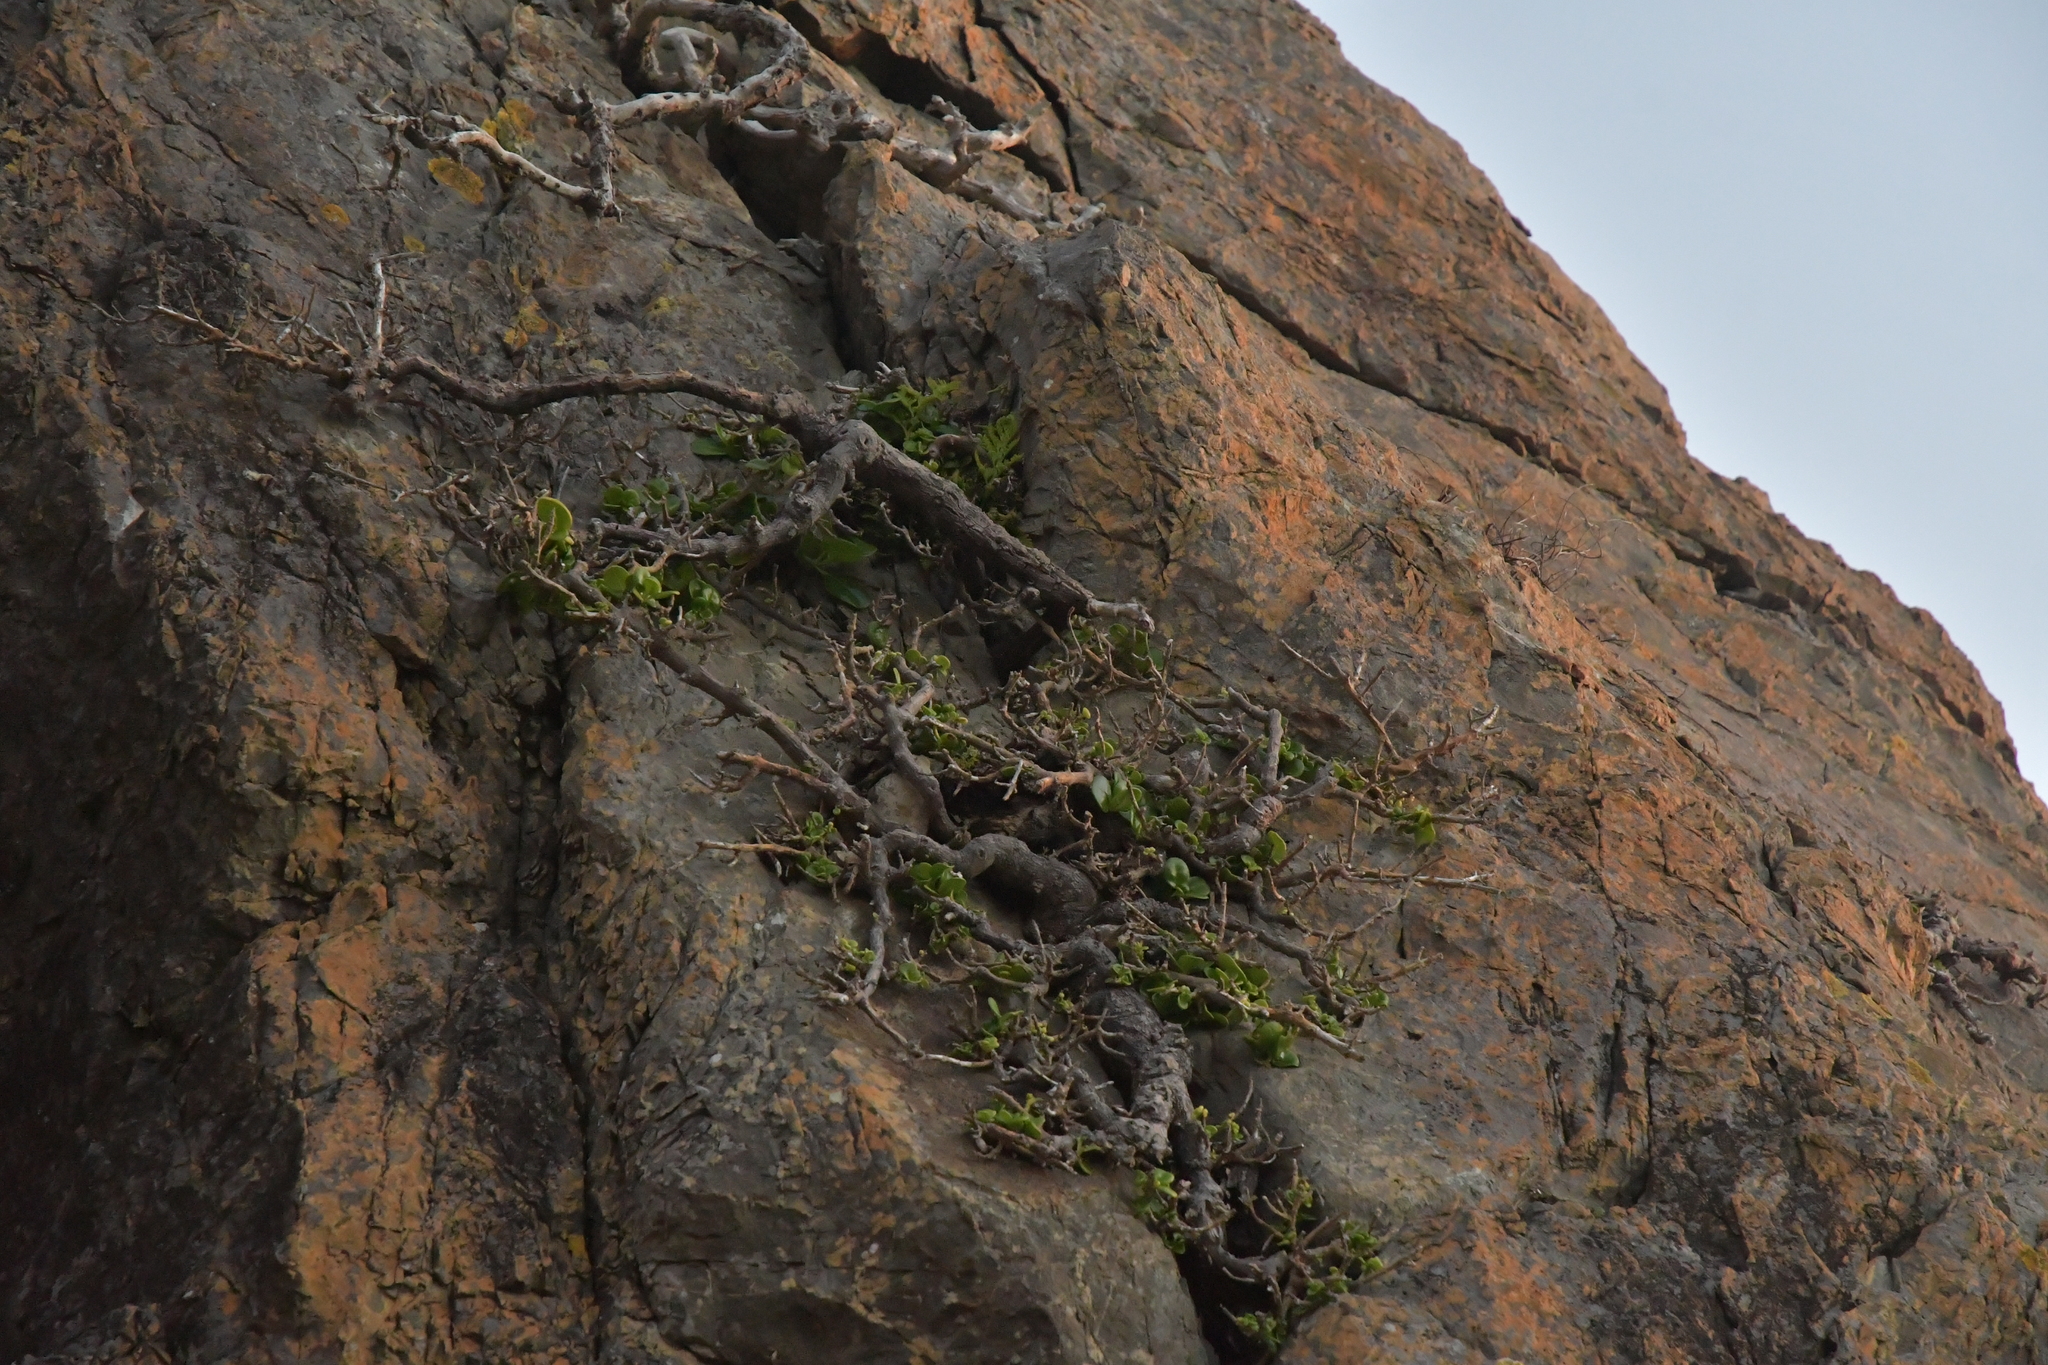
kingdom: Plantae
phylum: Tracheophyta
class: Magnoliopsida
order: Gentianales
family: Rubiaceae
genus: Coprosma
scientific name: Coprosma repens
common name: Tree bedstraw
